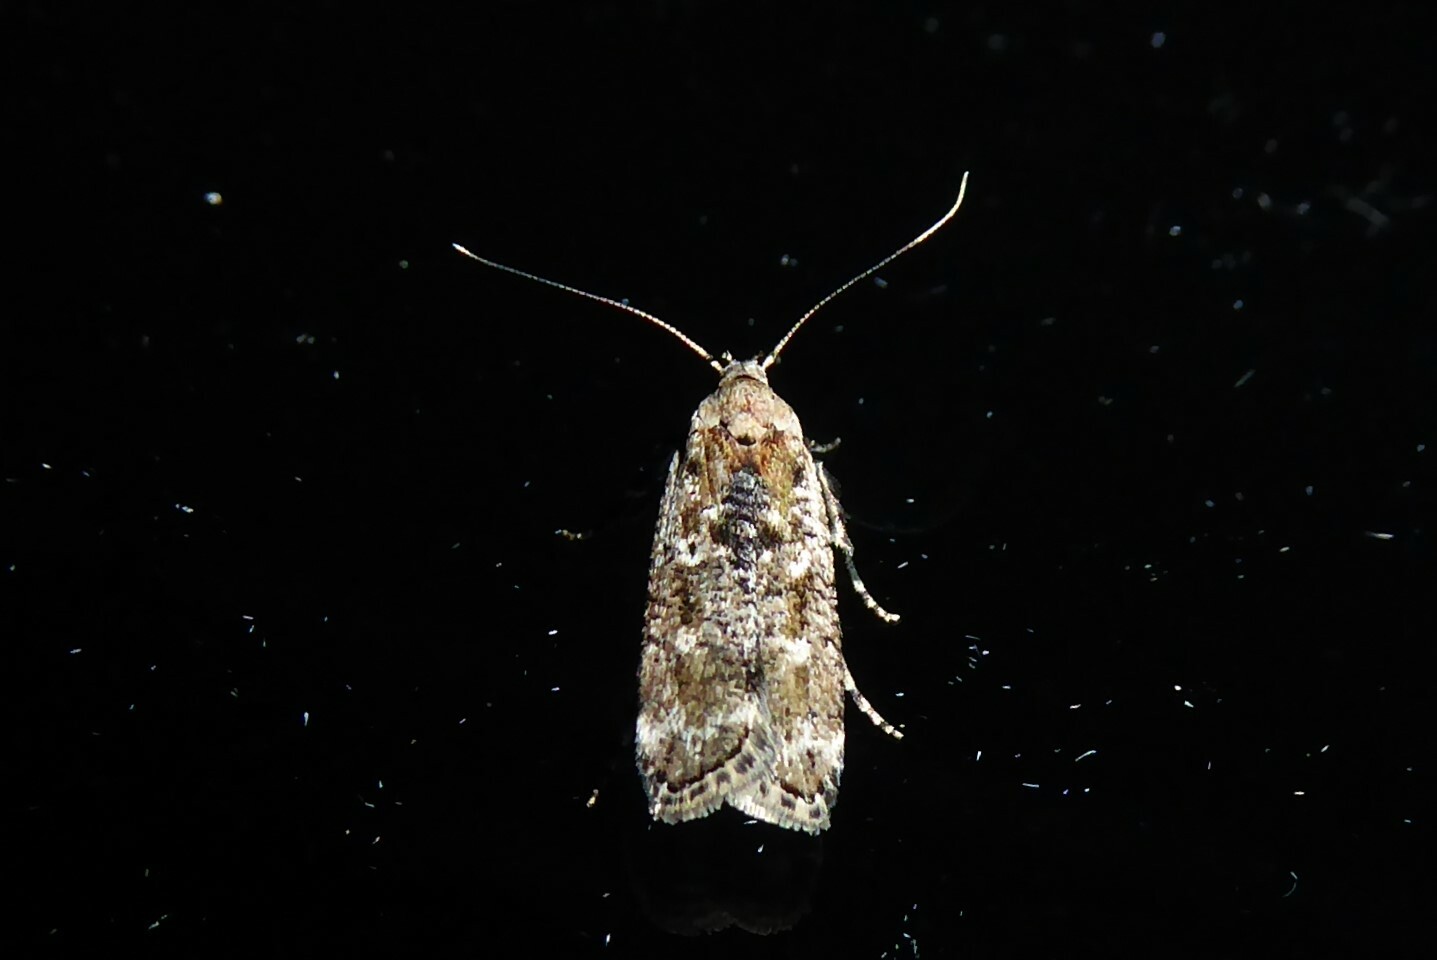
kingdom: Animalia
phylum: Arthropoda
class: Insecta
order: Lepidoptera
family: Gelechiidae
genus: Anisoplaca
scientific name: Anisoplaca achyrota
